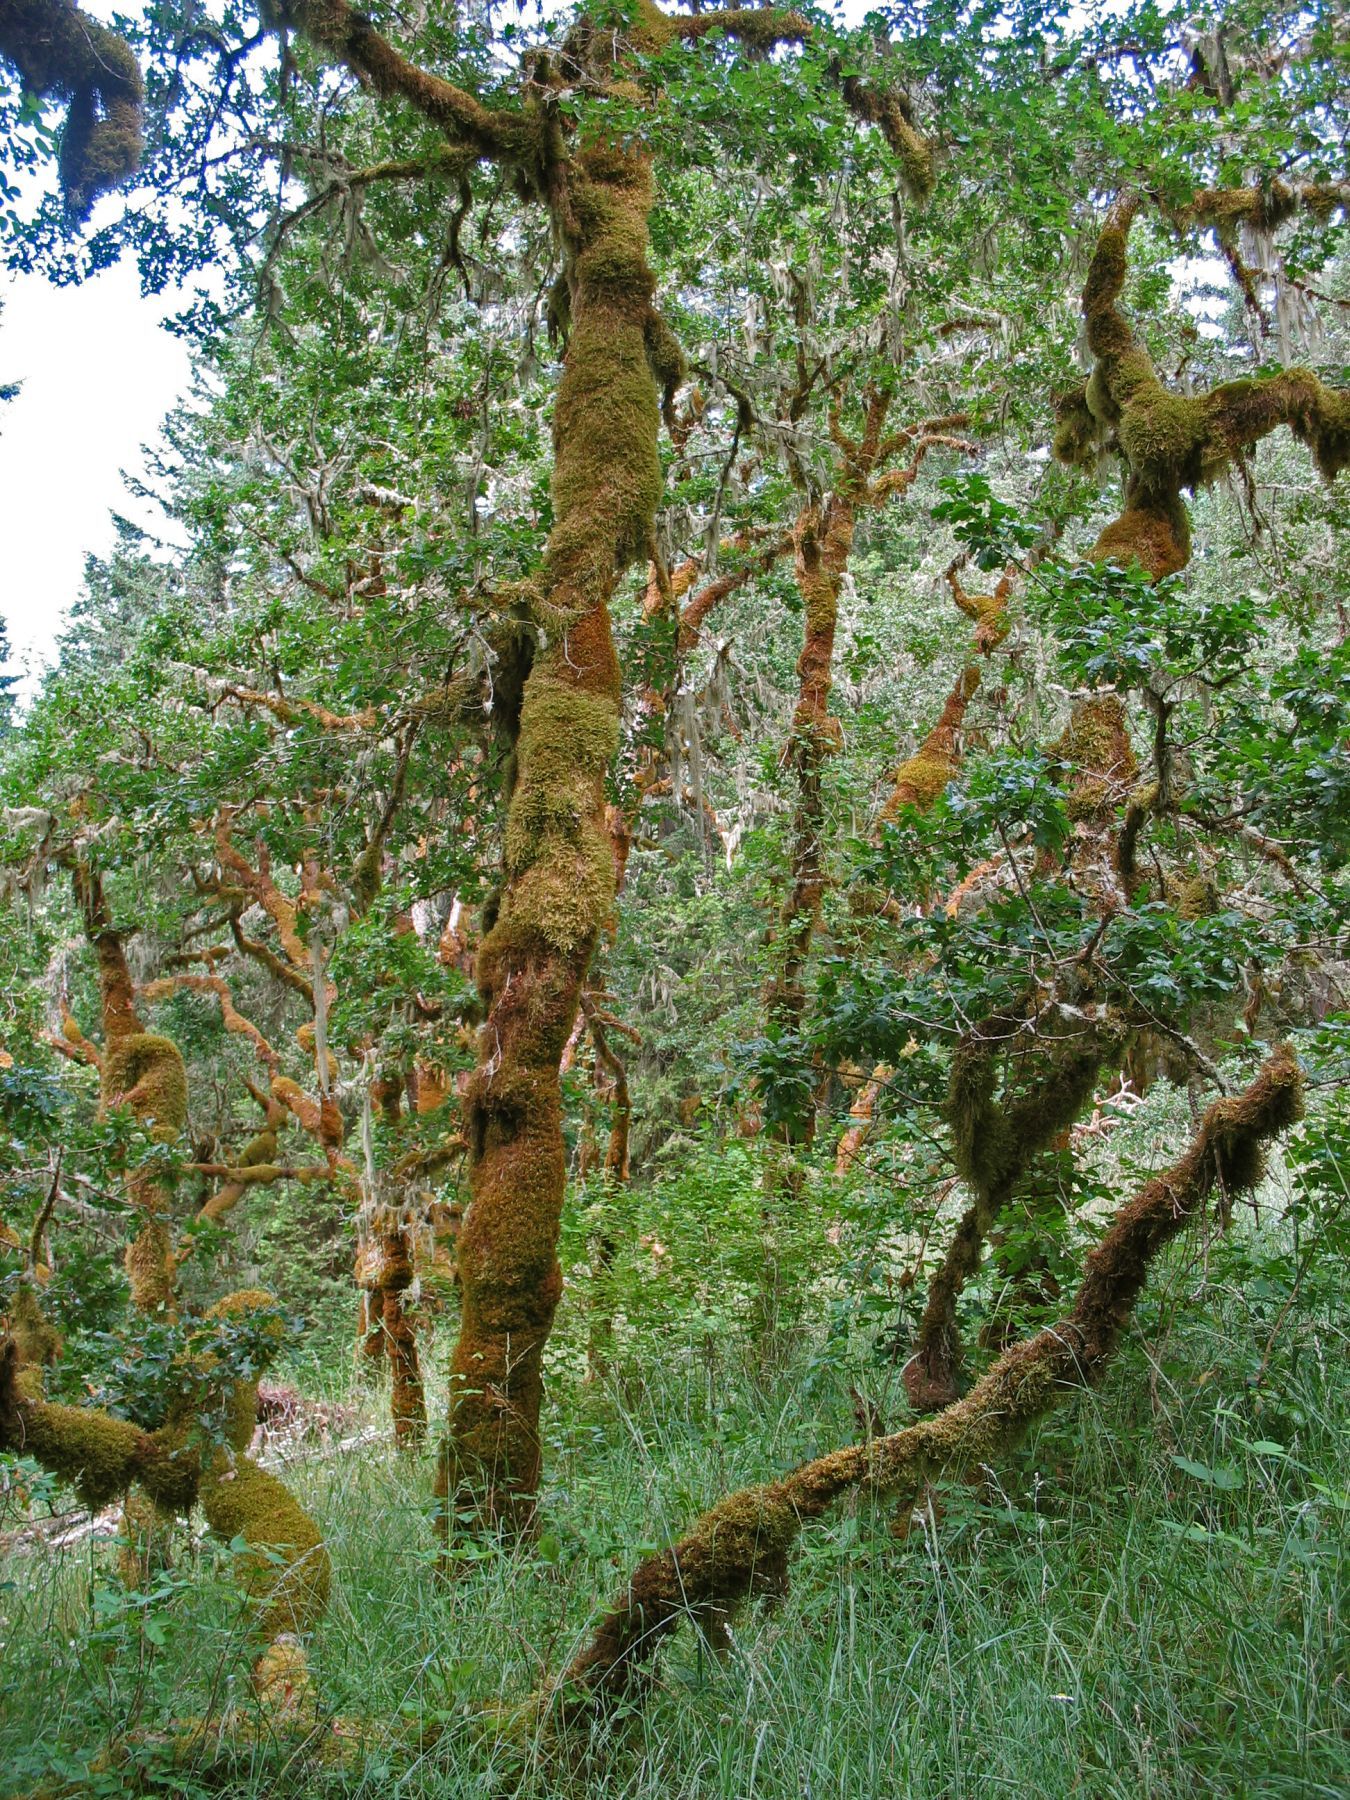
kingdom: Plantae
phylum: Tracheophyta
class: Magnoliopsida
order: Fagales
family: Fagaceae
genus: Quercus
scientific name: Quercus garryana
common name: Garry oak
